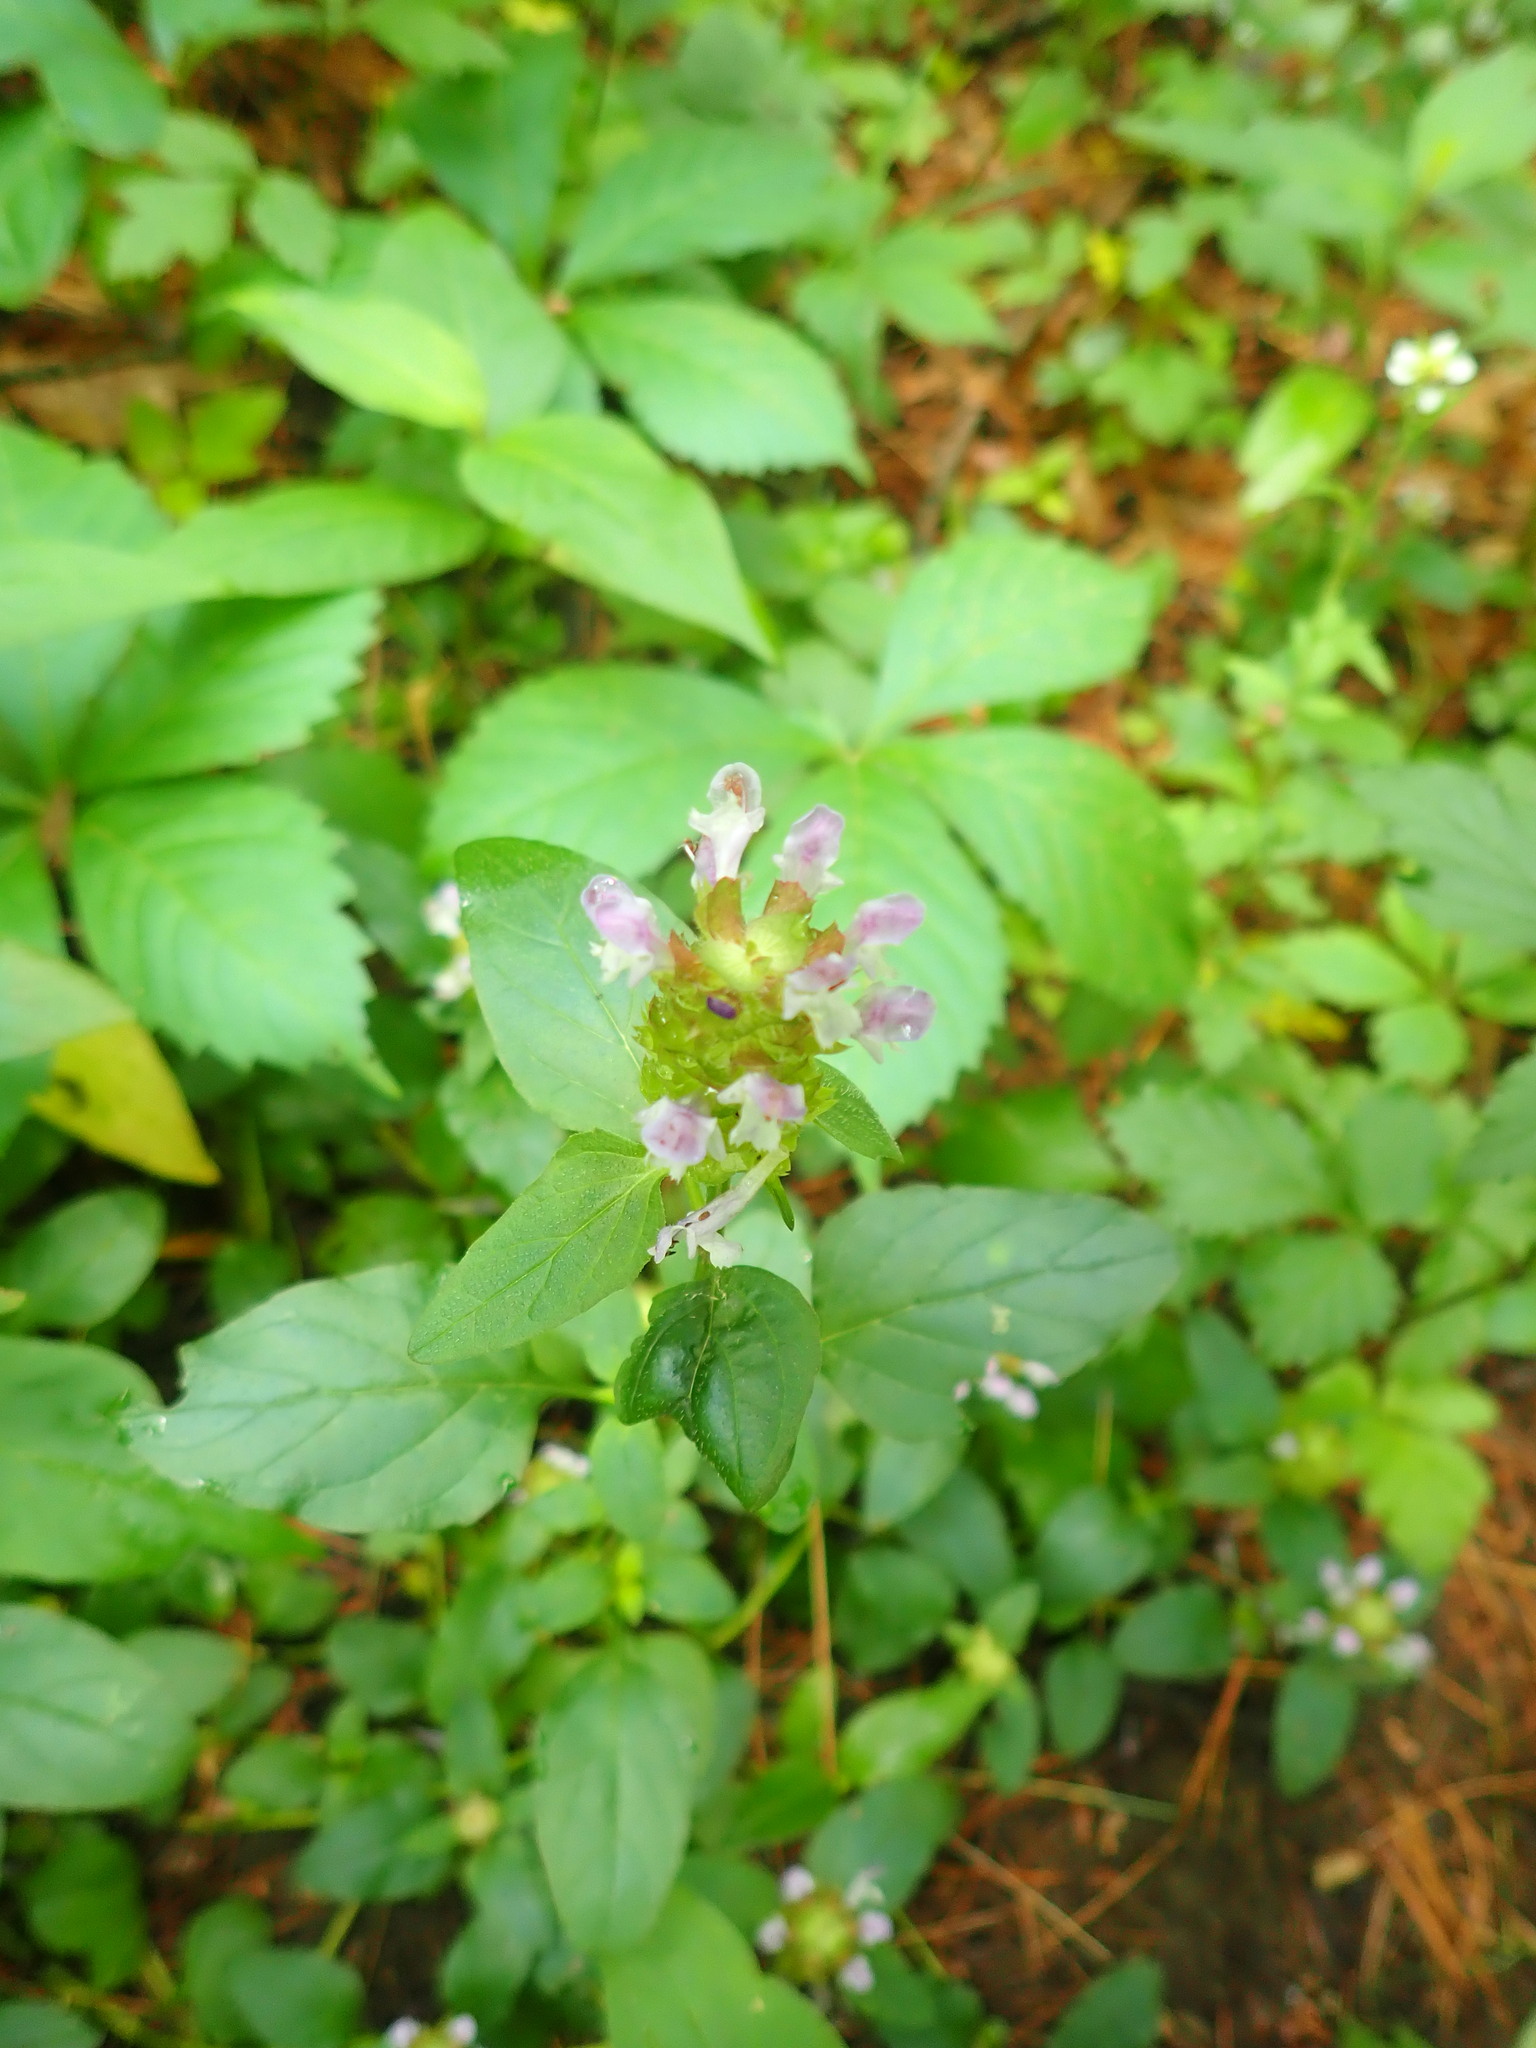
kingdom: Plantae
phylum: Tracheophyta
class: Magnoliopsida
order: Lamiales
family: Lamiaceae
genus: Prunella
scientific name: Prunella vulgaris
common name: Heal-all
